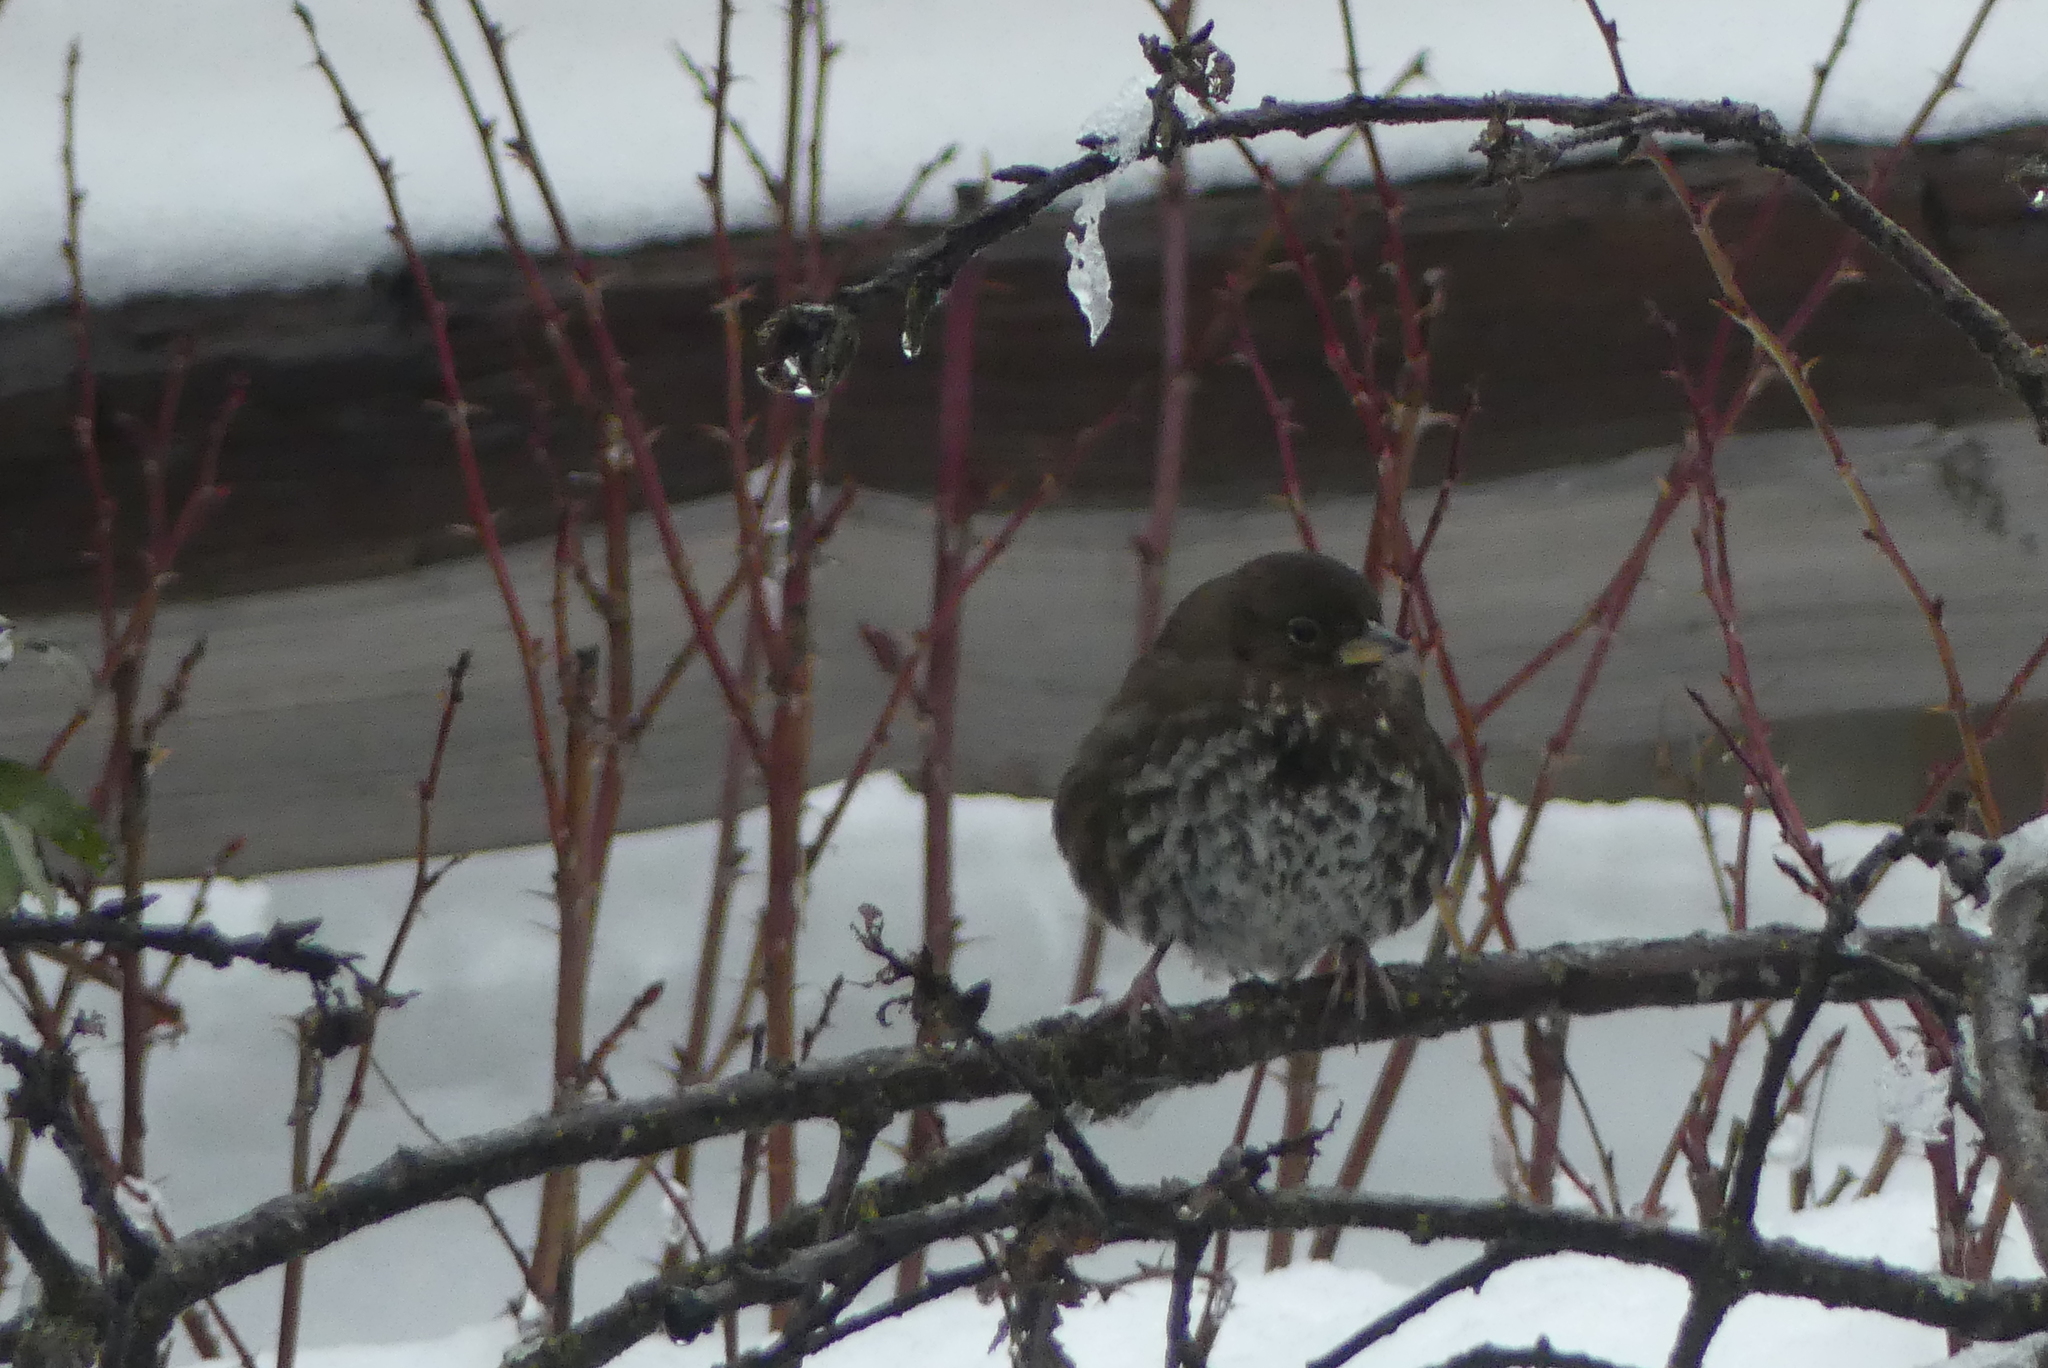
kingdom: Animalia
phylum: Chordata
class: Aves
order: Passeriformes
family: Passerellidae
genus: Passerella
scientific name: Passerella iliaca
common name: Fox sparrow
